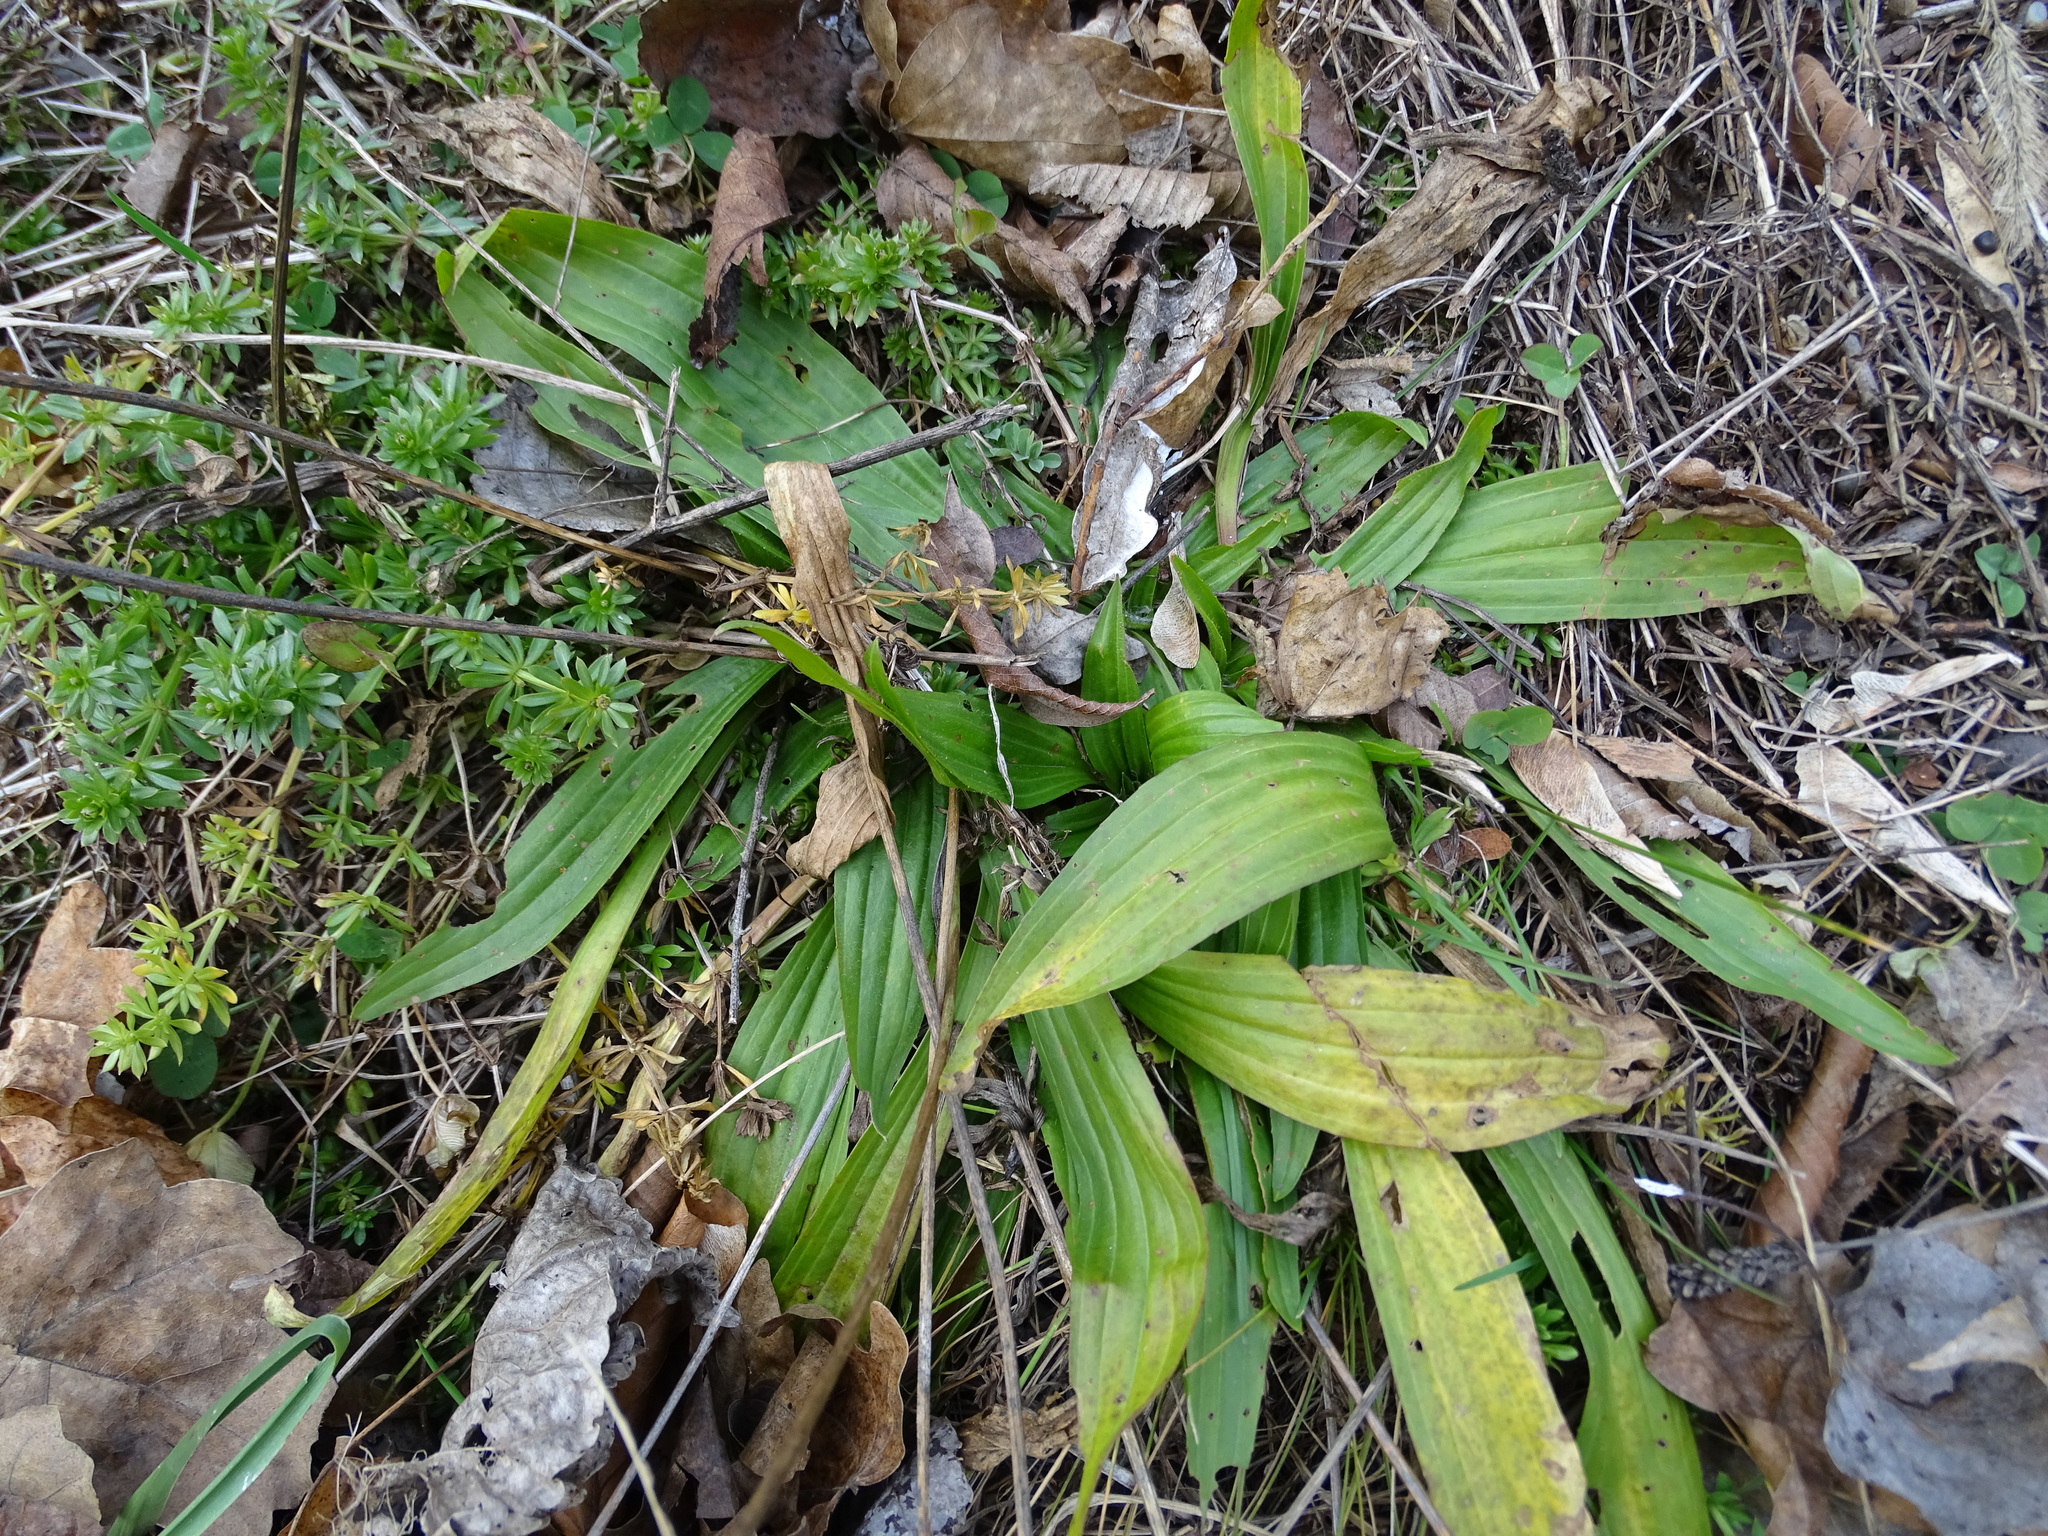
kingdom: Plantae
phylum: Tracheophyta
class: Magnoliopsida
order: Lamiales
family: Plantaginaceae
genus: Plantago
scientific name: Plantago lanceolata
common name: Ribwort plantain
